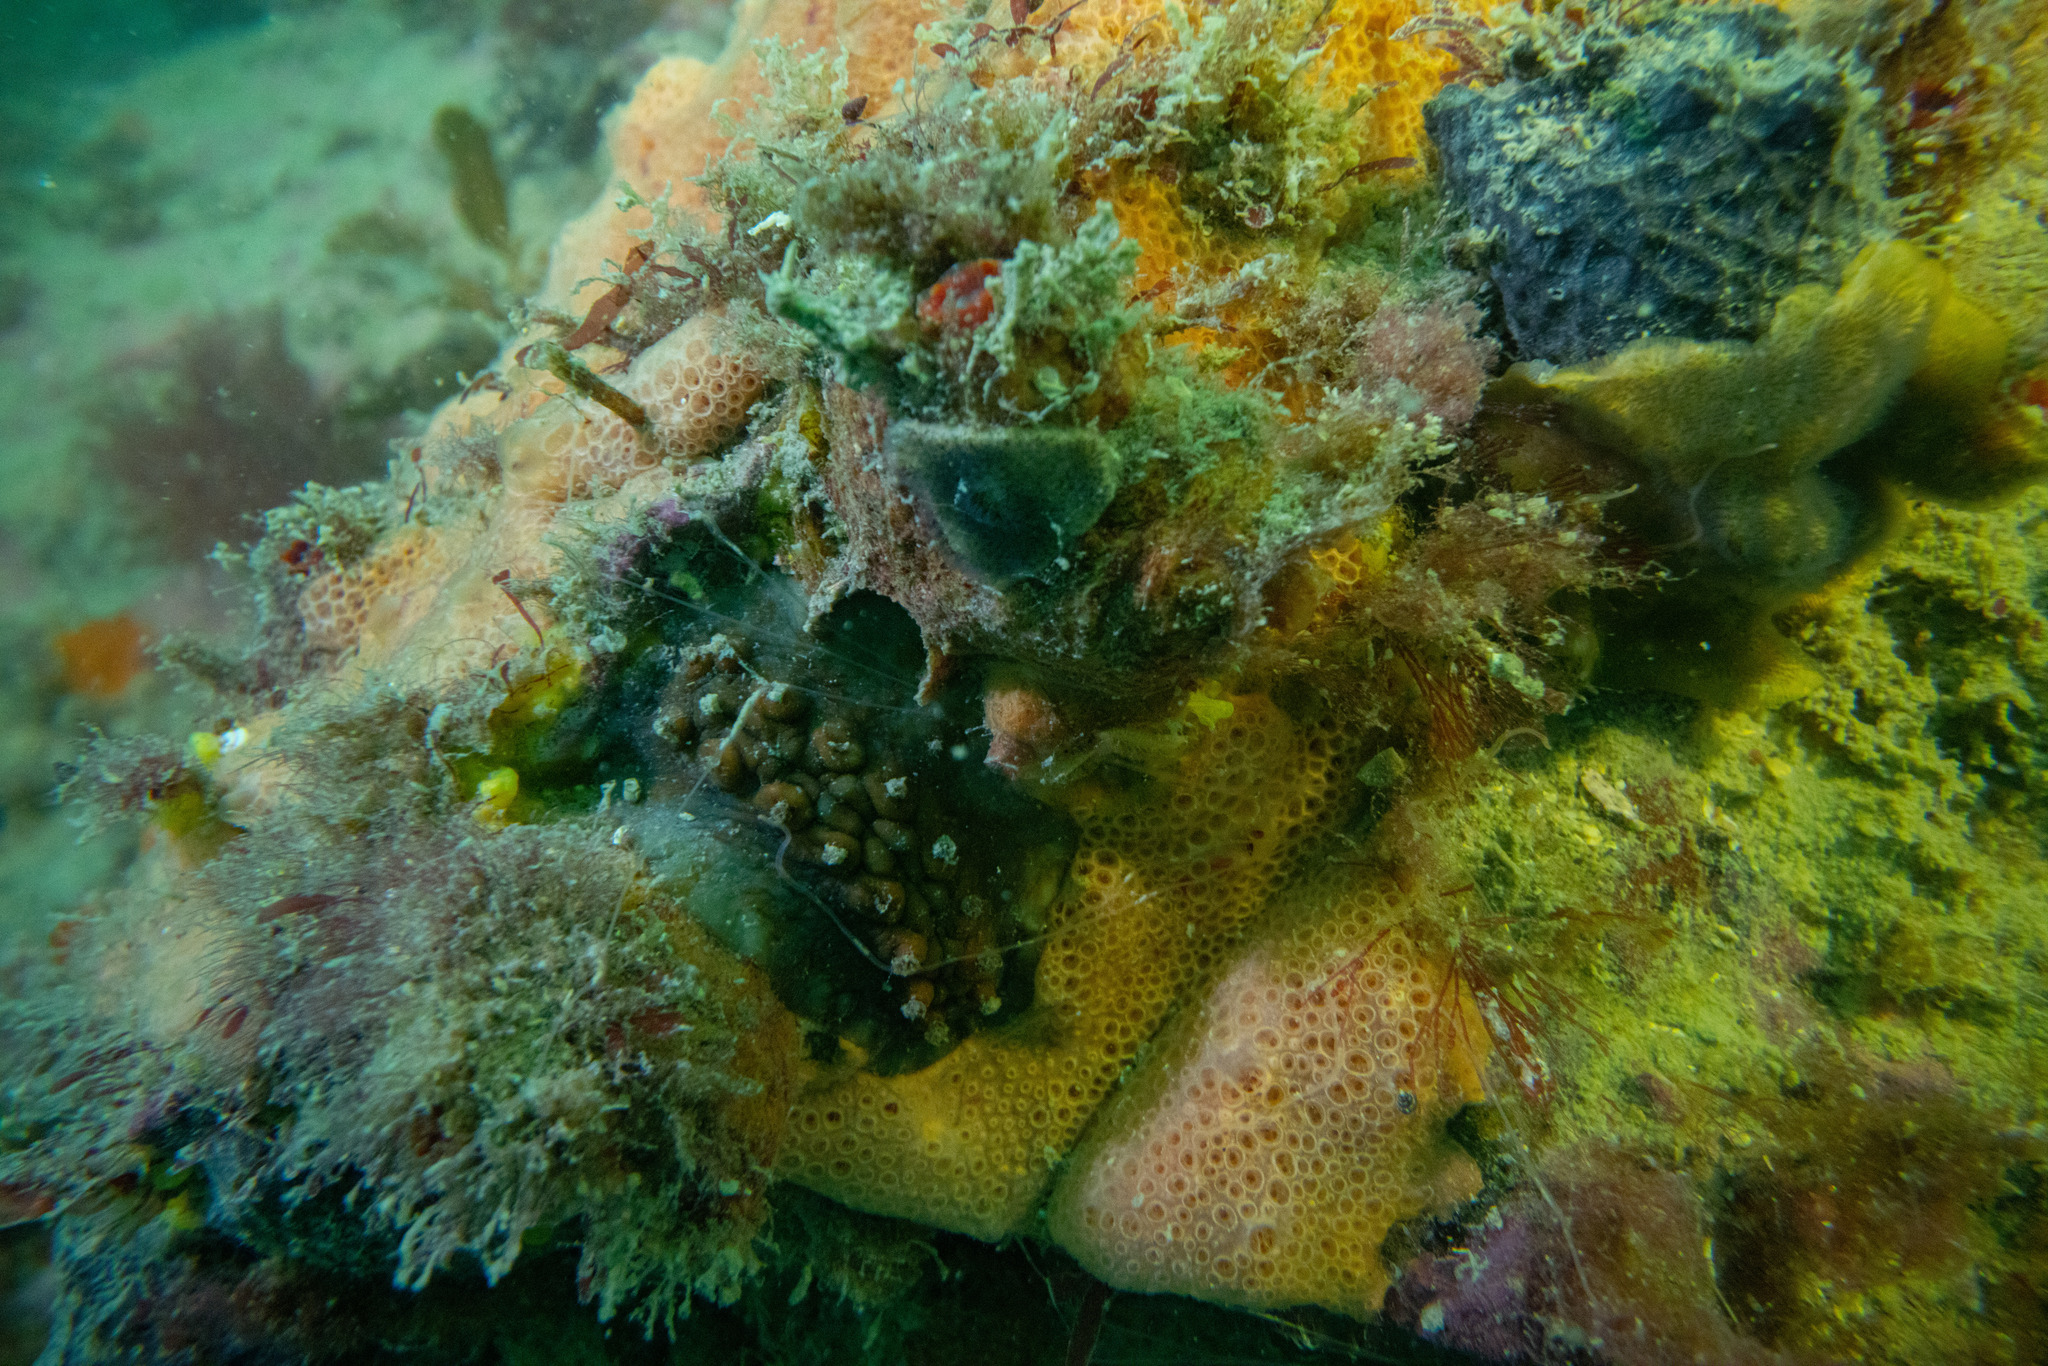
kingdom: Animalia
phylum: Mollusca
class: Polyplacophora
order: Chitonida
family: Acanthochitonidae
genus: Cryptoconchus
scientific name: Cryptoconchus porosus
